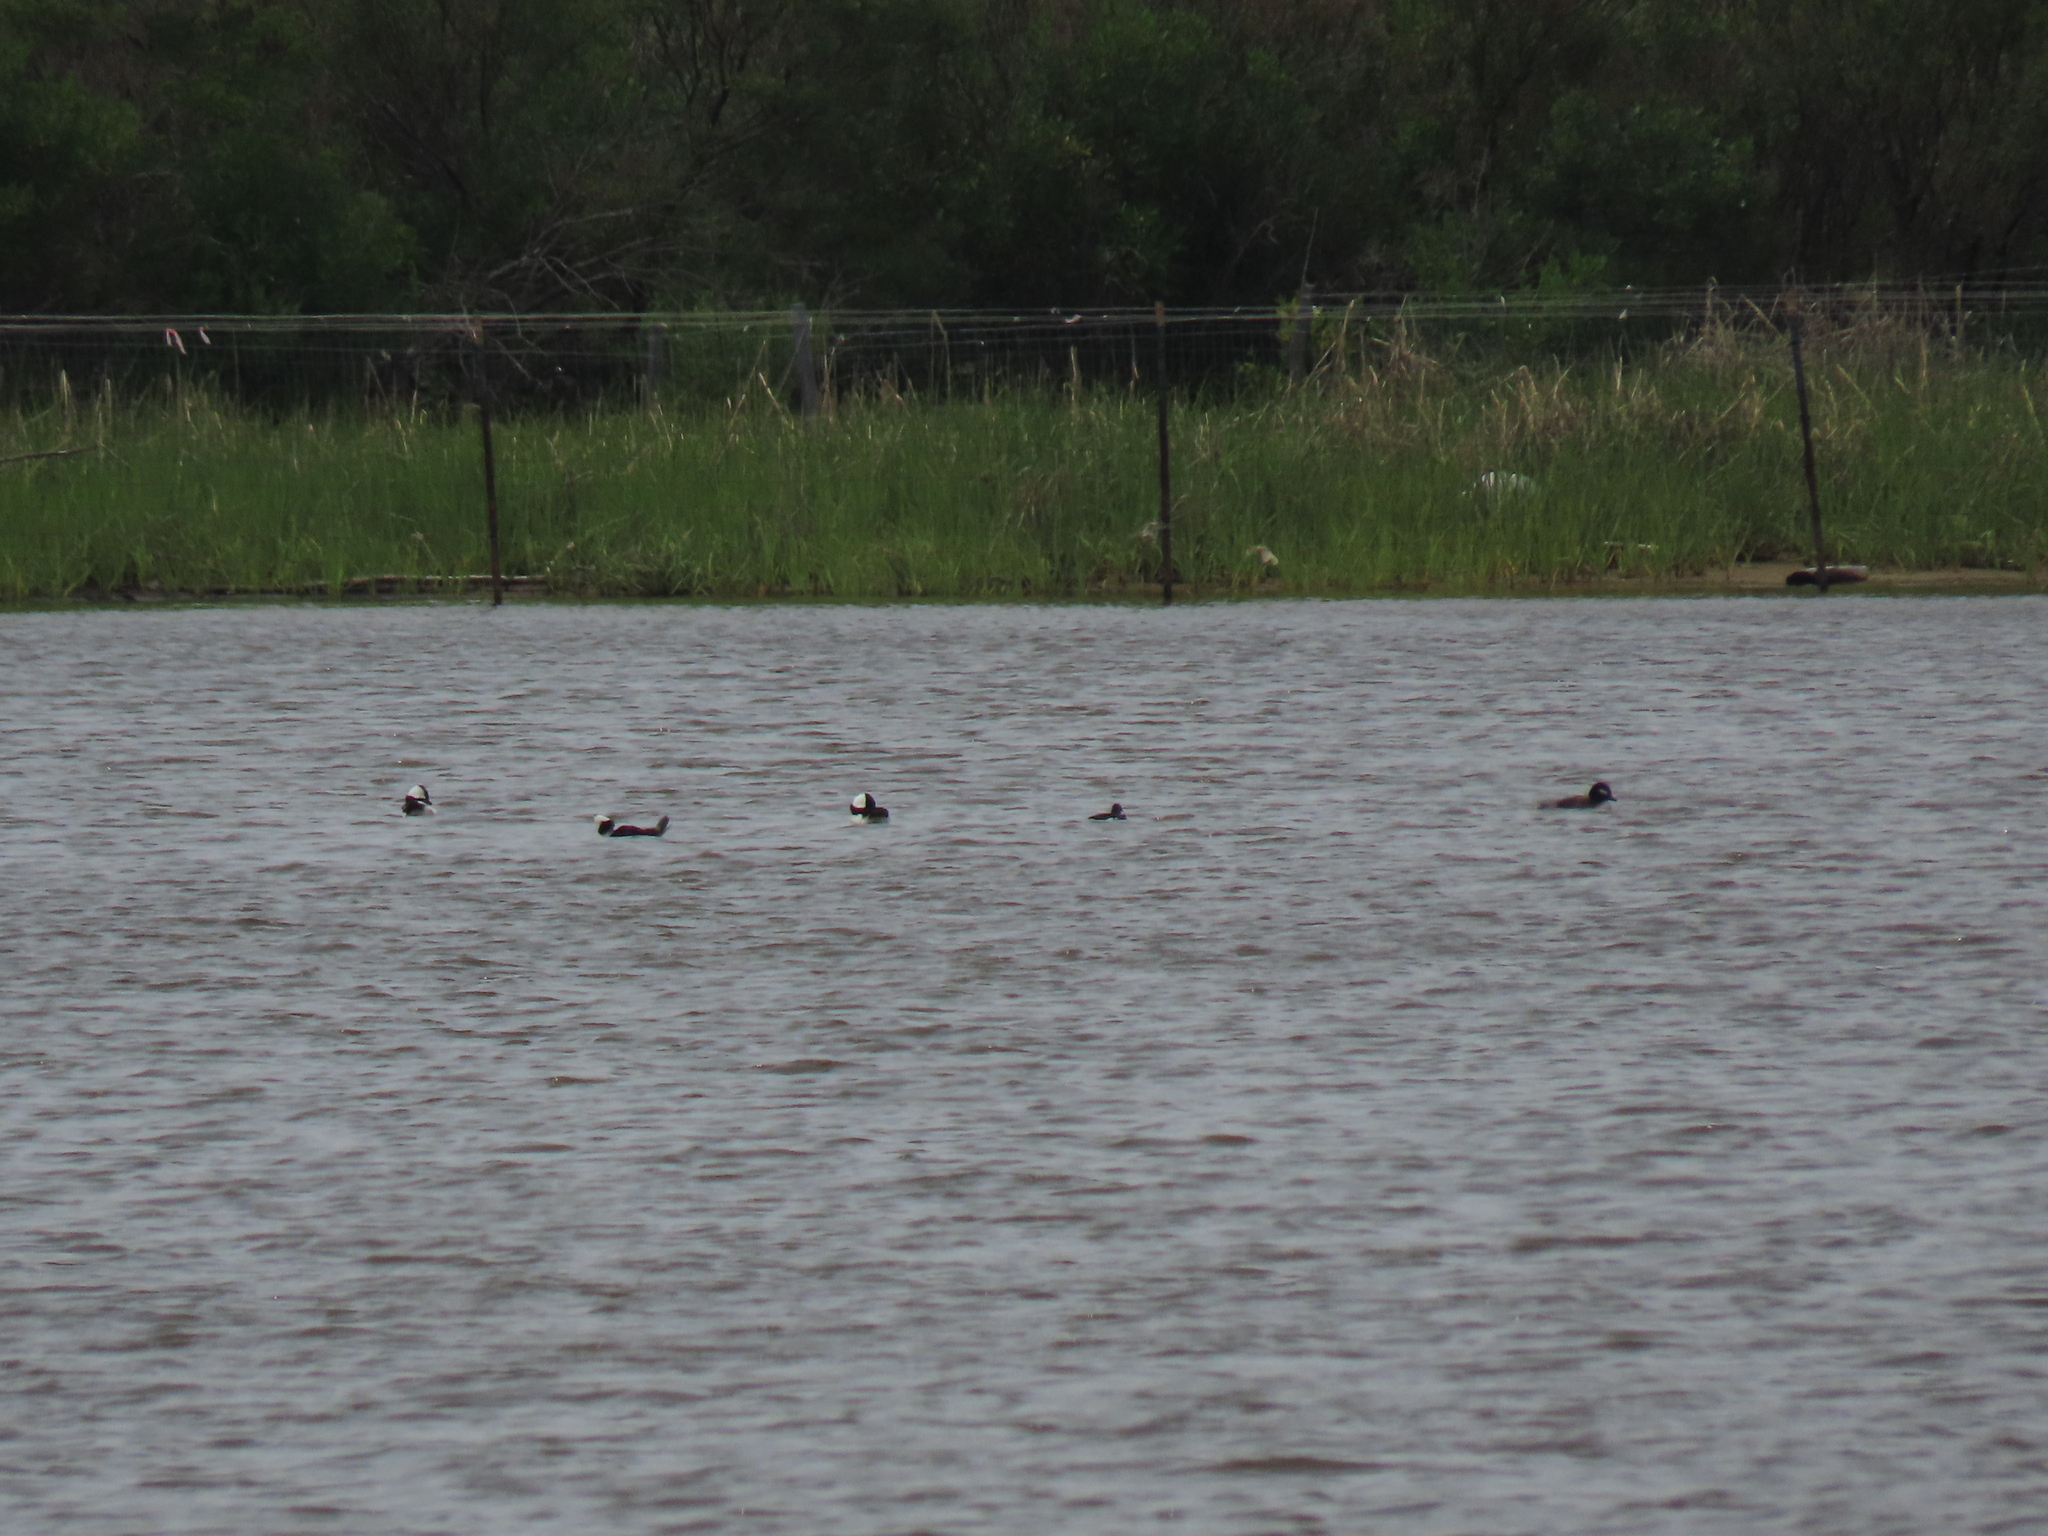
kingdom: Animalia
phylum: Chordata
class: Aves
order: Anseriformes
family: Anatidae
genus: Bucephala
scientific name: Bucephala albeola
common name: Bufflehead
